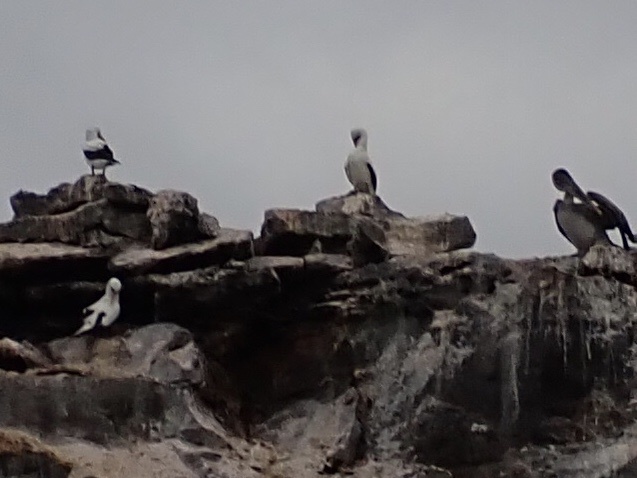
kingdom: Animalia
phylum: Chordata
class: Aves
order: Suliformes
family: Sulidae
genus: Sula
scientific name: Sula granti
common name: Nazca booby
